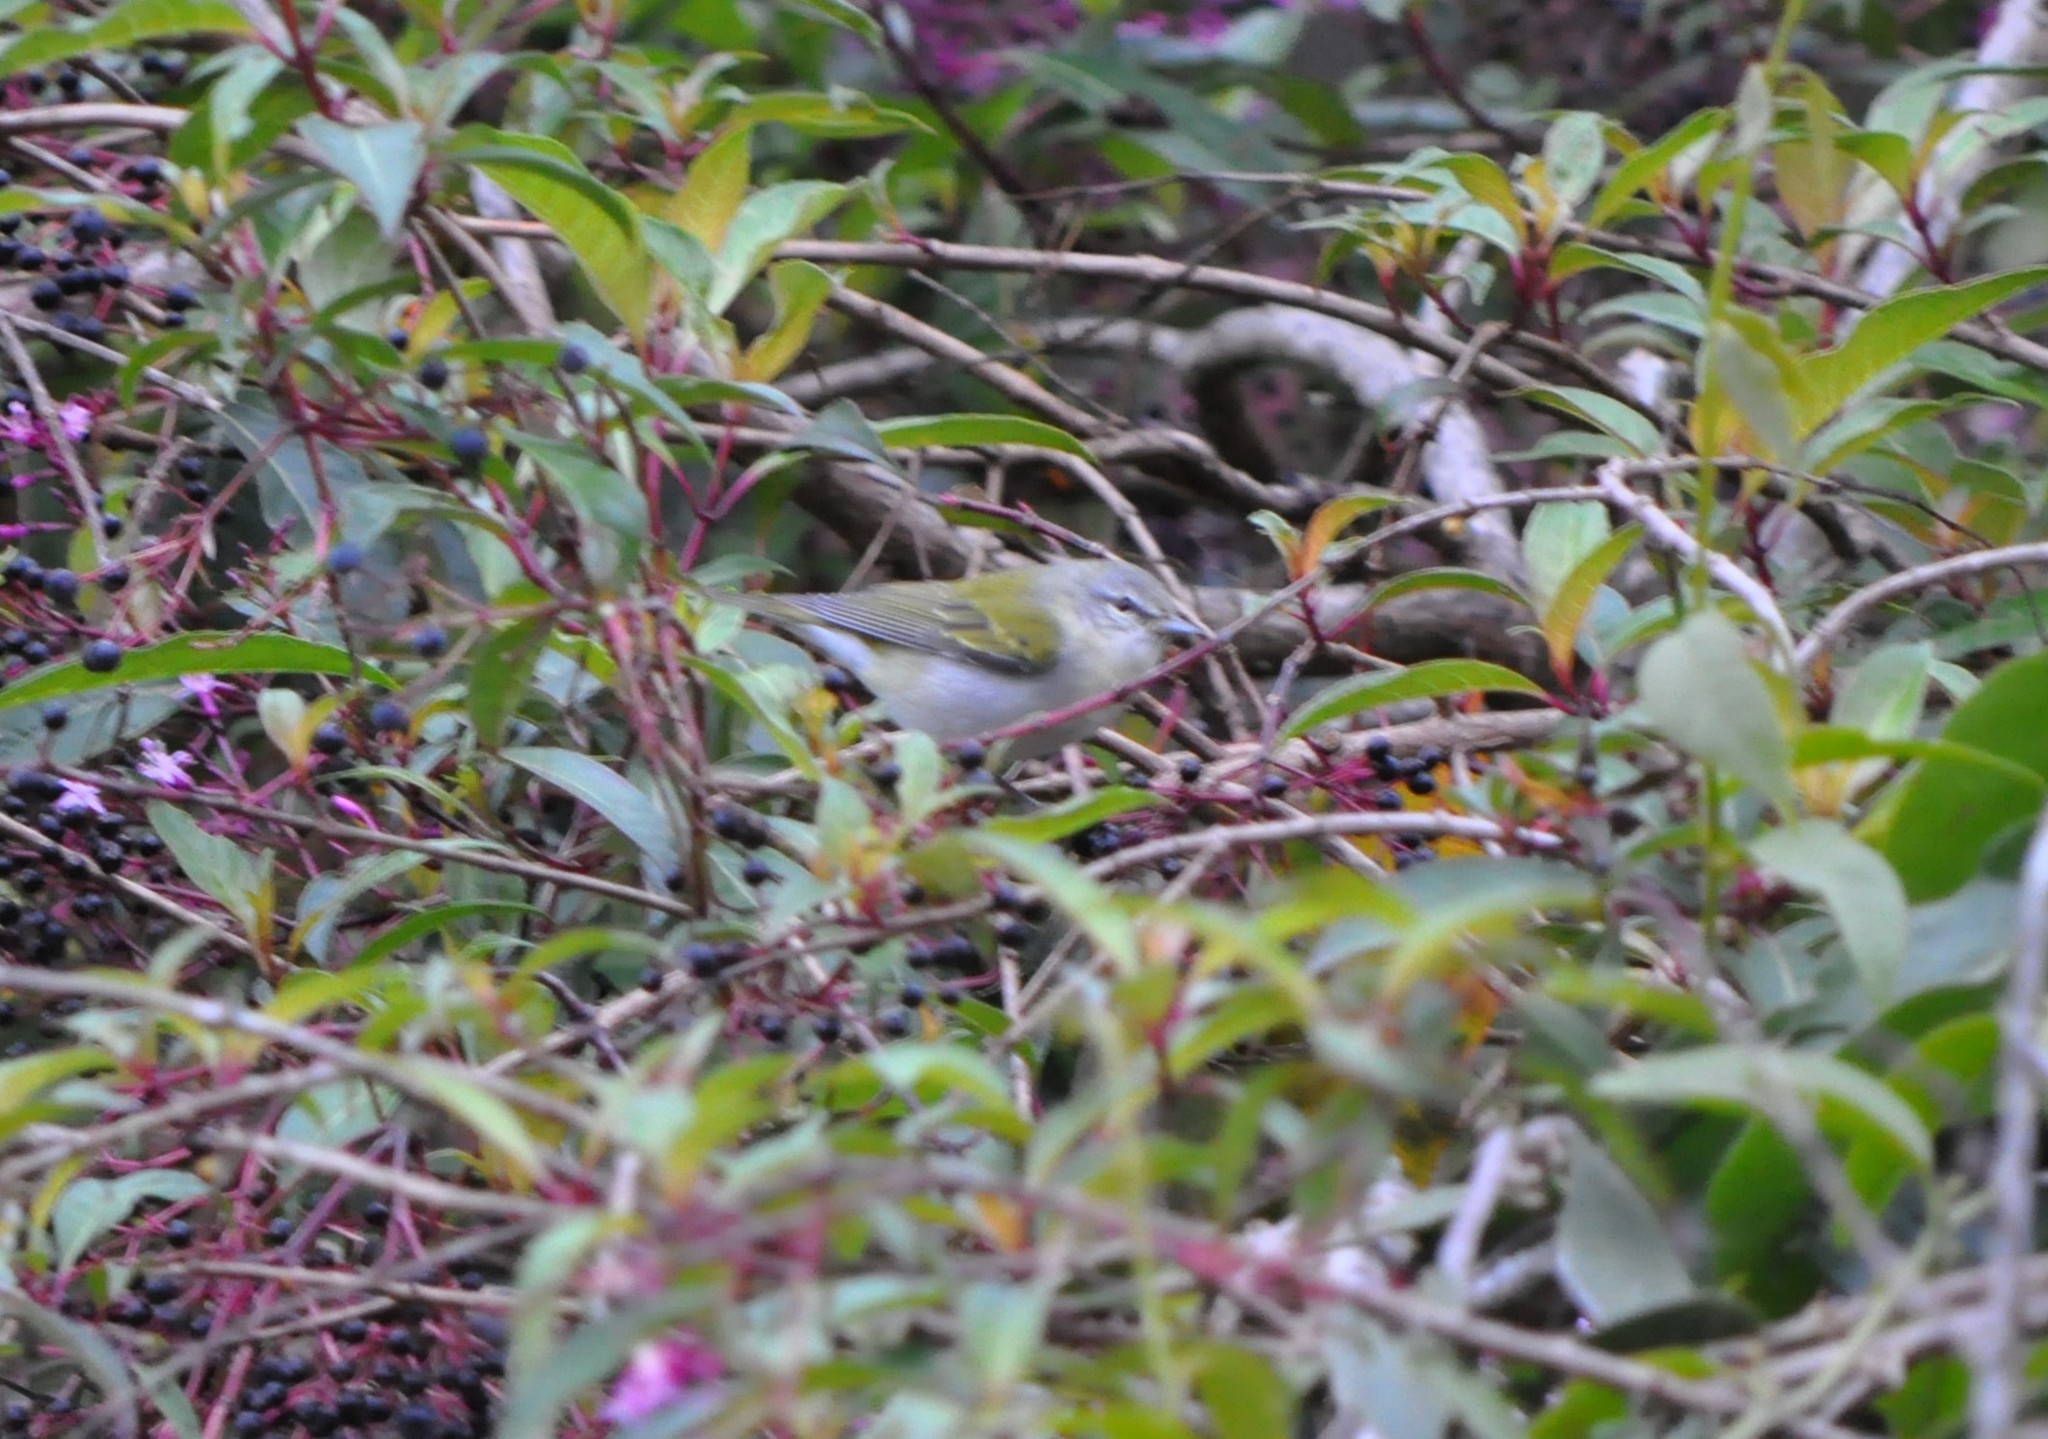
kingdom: Animalia
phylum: Chordata
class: Aves
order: Passeriformes
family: Parulidae
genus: Leiothlypis
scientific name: Leiothlypis peregrina
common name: Tennessee warbler
